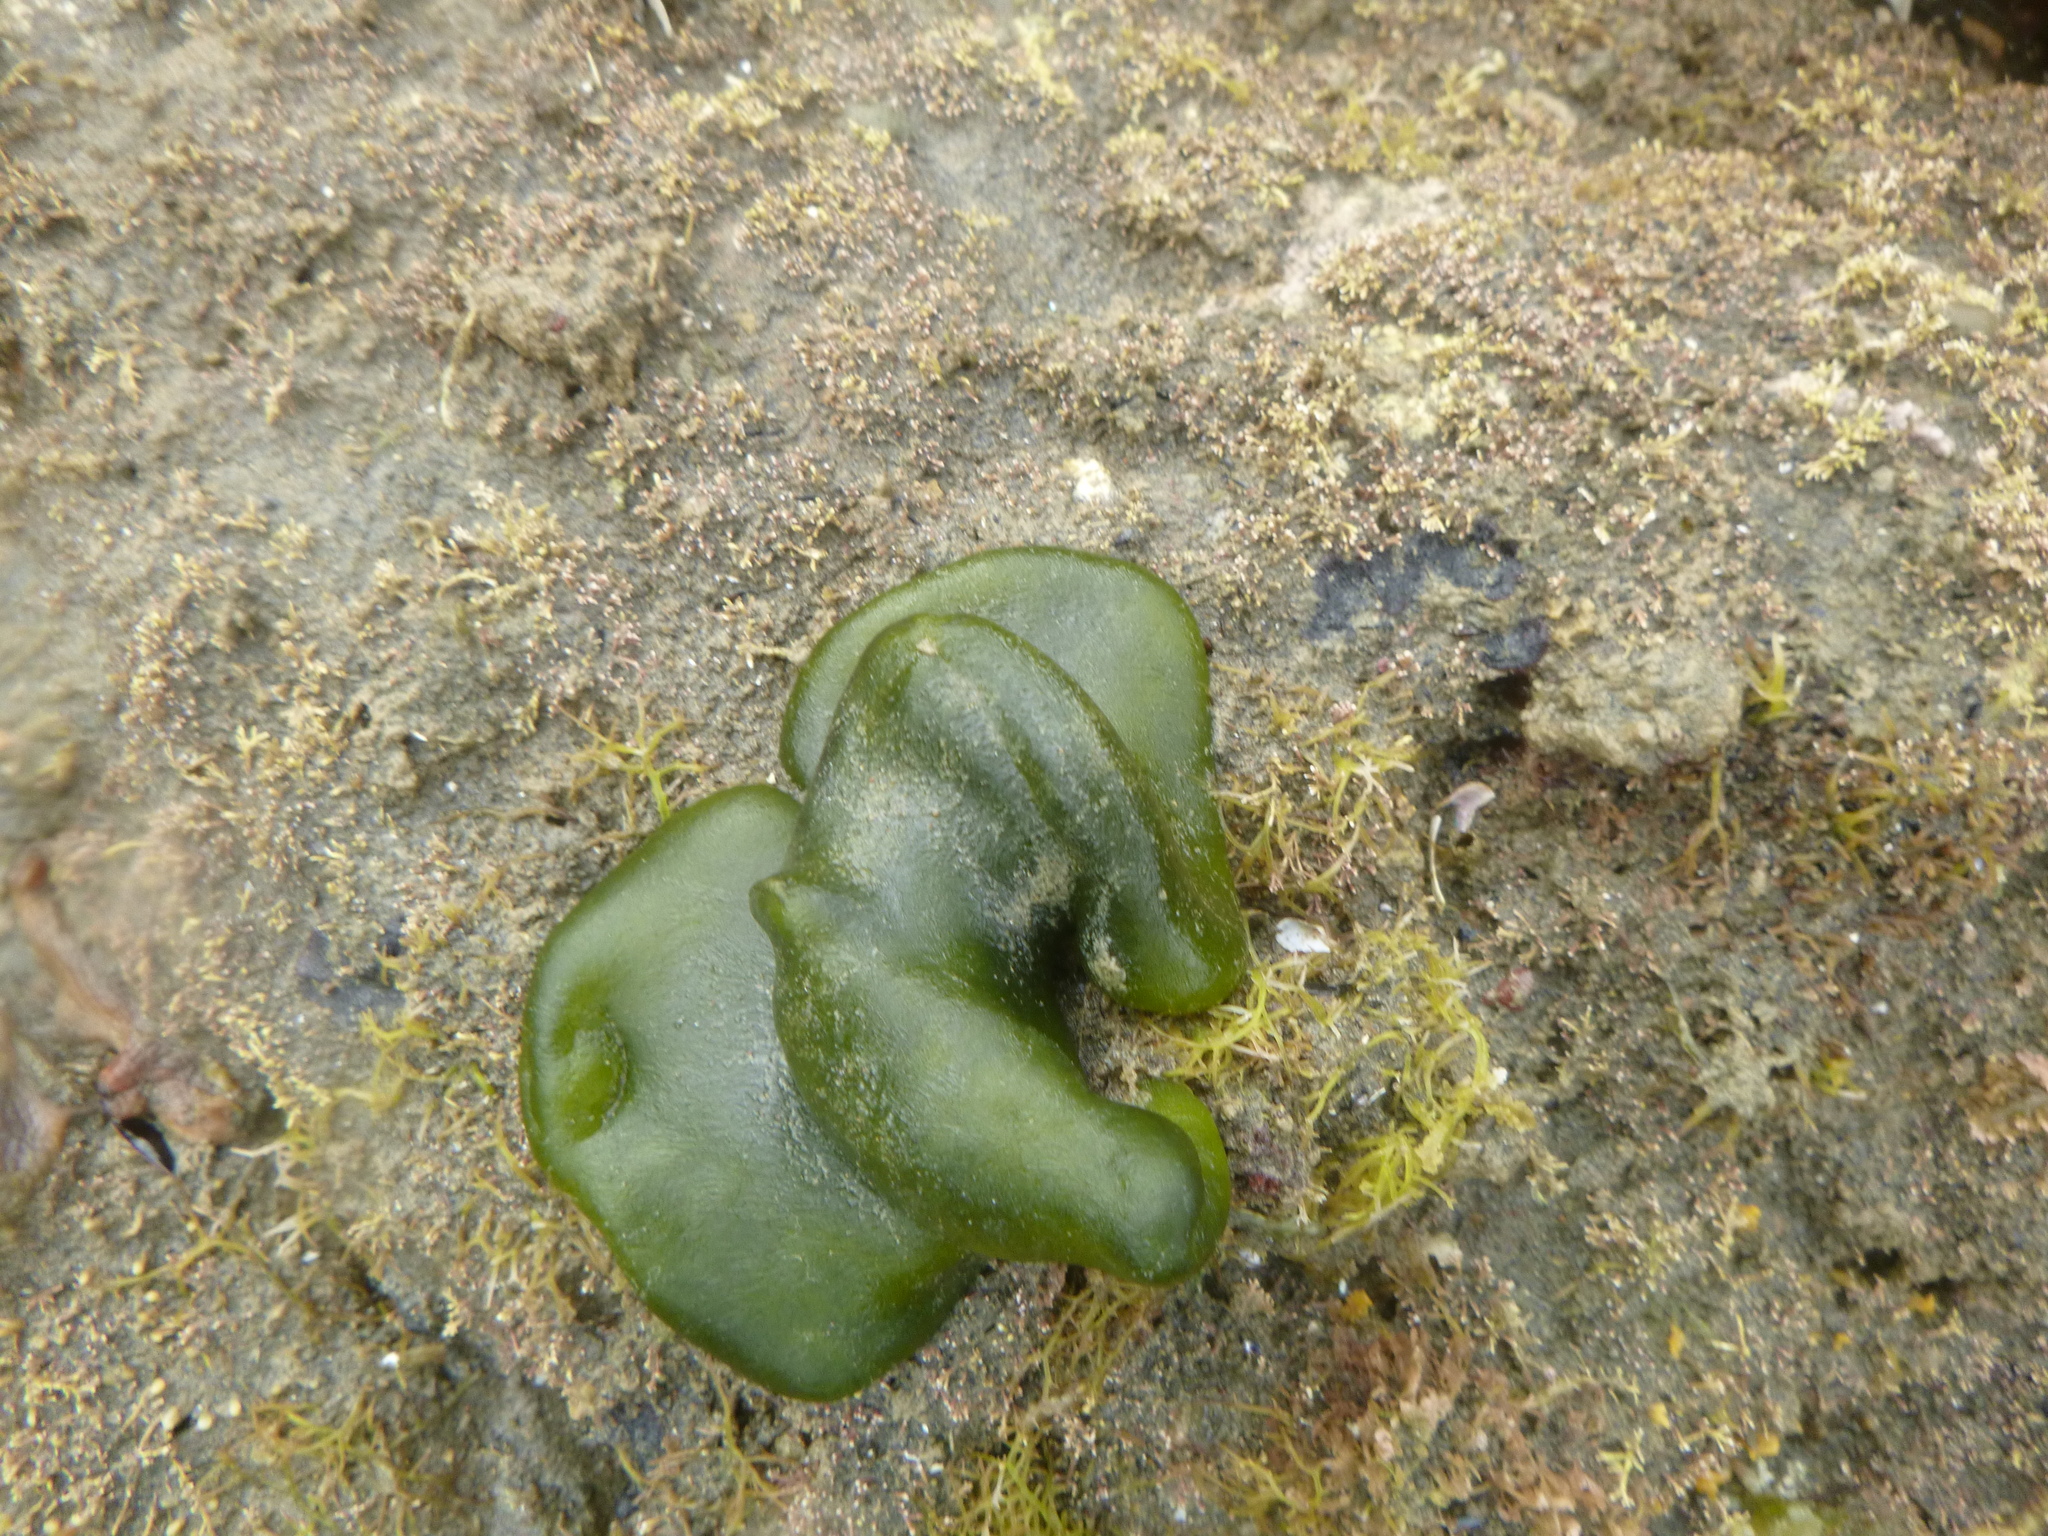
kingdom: Bacteria
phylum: Cyanobacteria
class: Cyanobacteriia
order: Cyanobacteriales
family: Nostocaceae
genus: Rivularia
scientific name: Rivularia bullata
